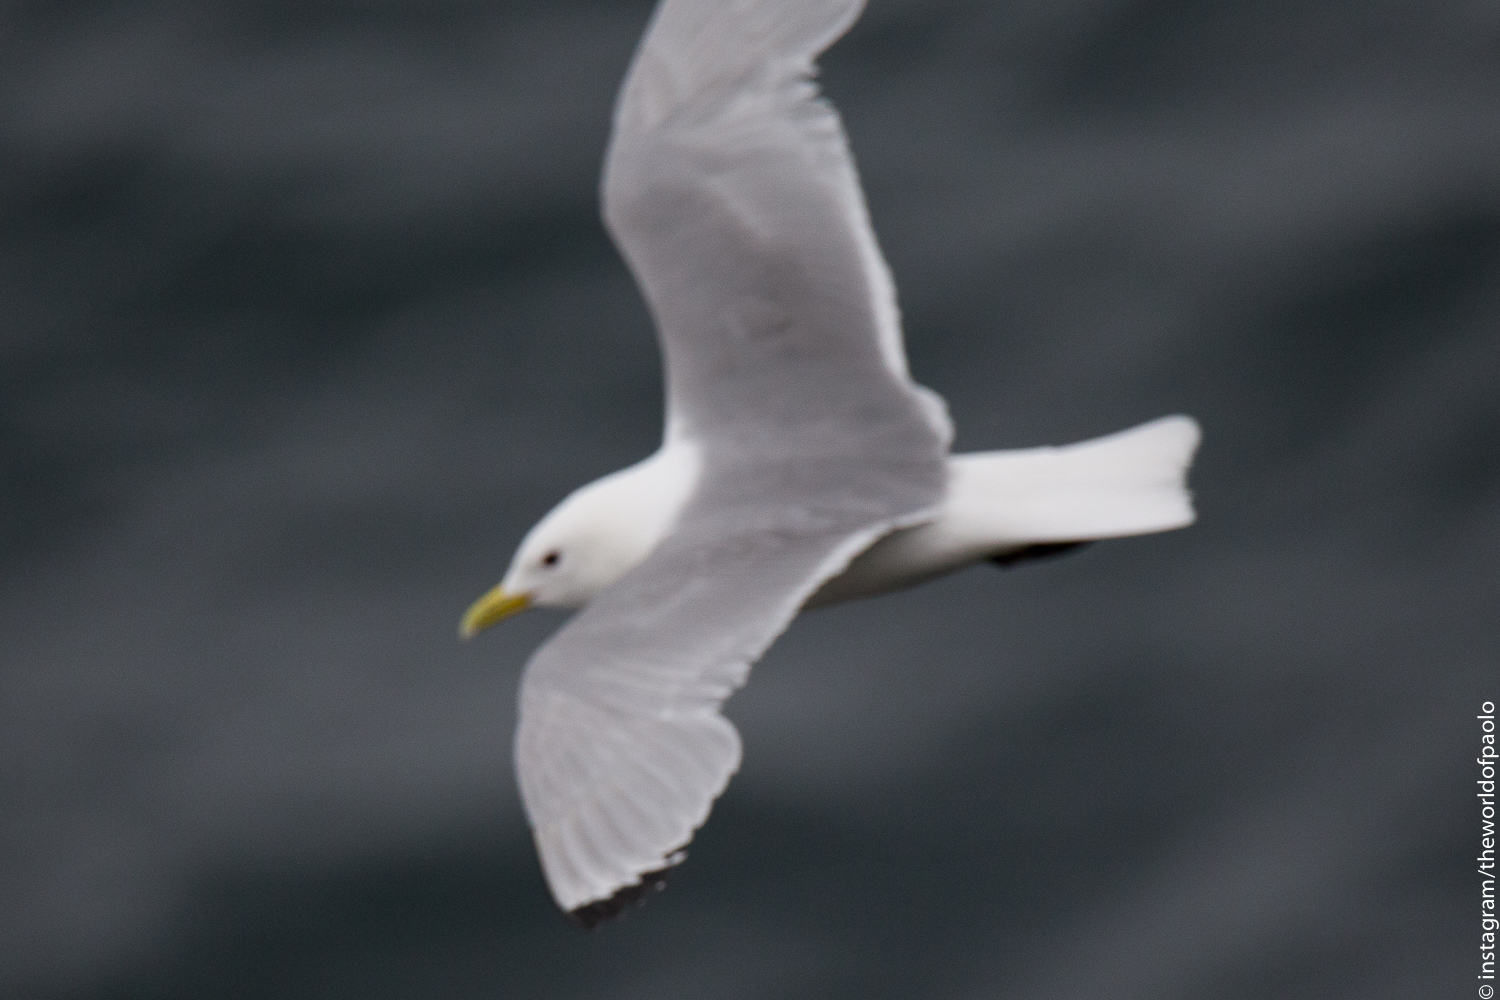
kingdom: Animalia
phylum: Chordata
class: Aves
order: Charadriiformes
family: Laridae
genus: Rissa
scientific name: Rissa tridactyla
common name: Black-legged kittiwake
